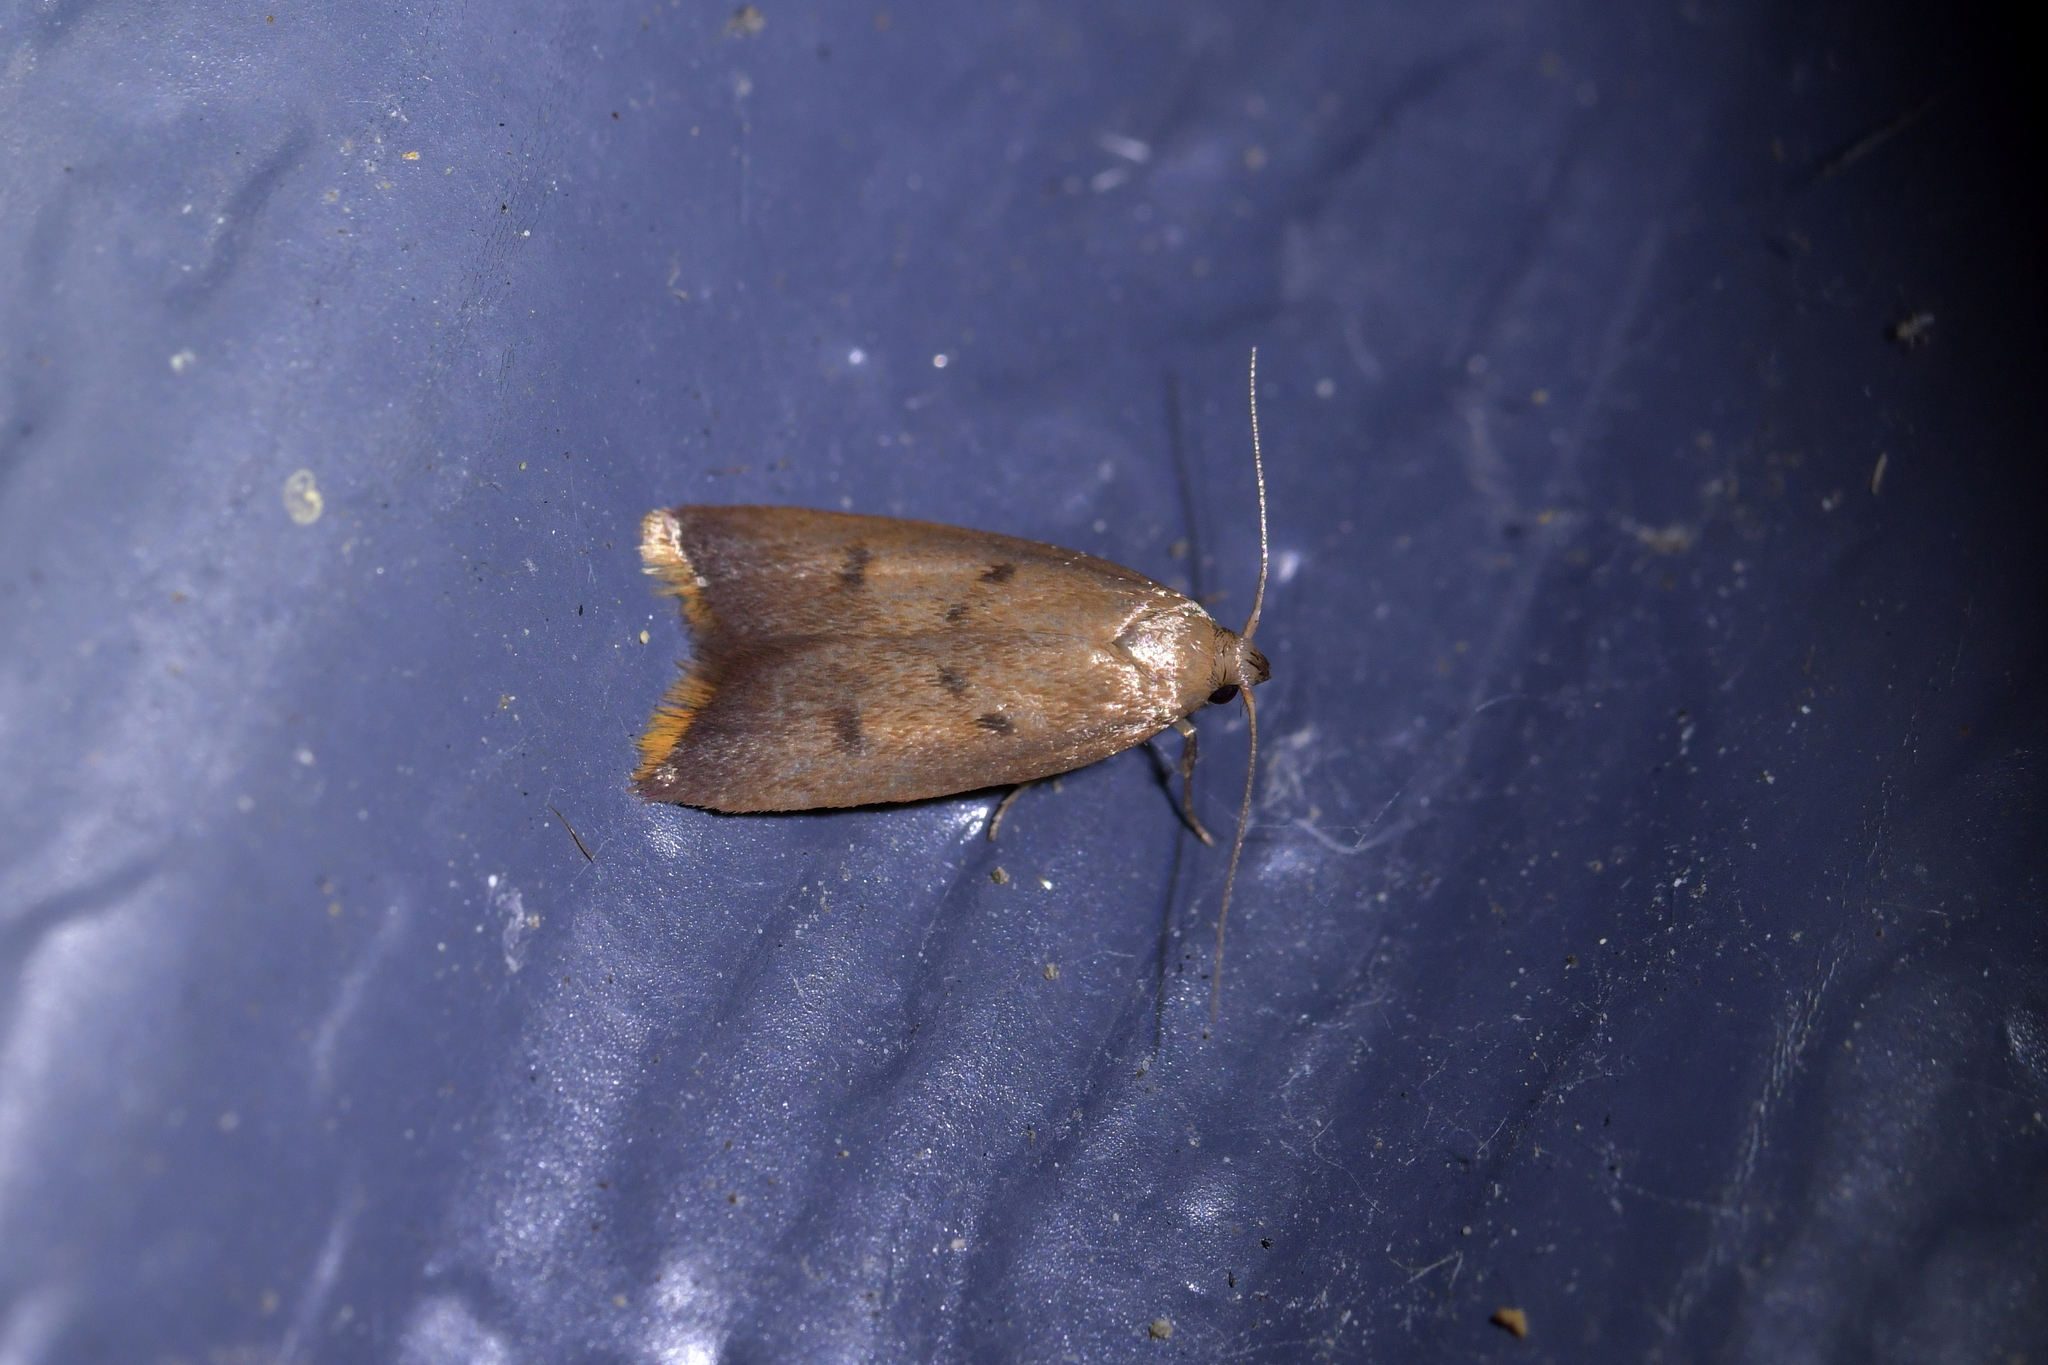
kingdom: Animalia
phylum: Arthropoda
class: Insecta
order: Lepidoptera
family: Oecophoridae
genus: Tachystola
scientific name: Tachystola acroxantha
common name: Ruddy streak
